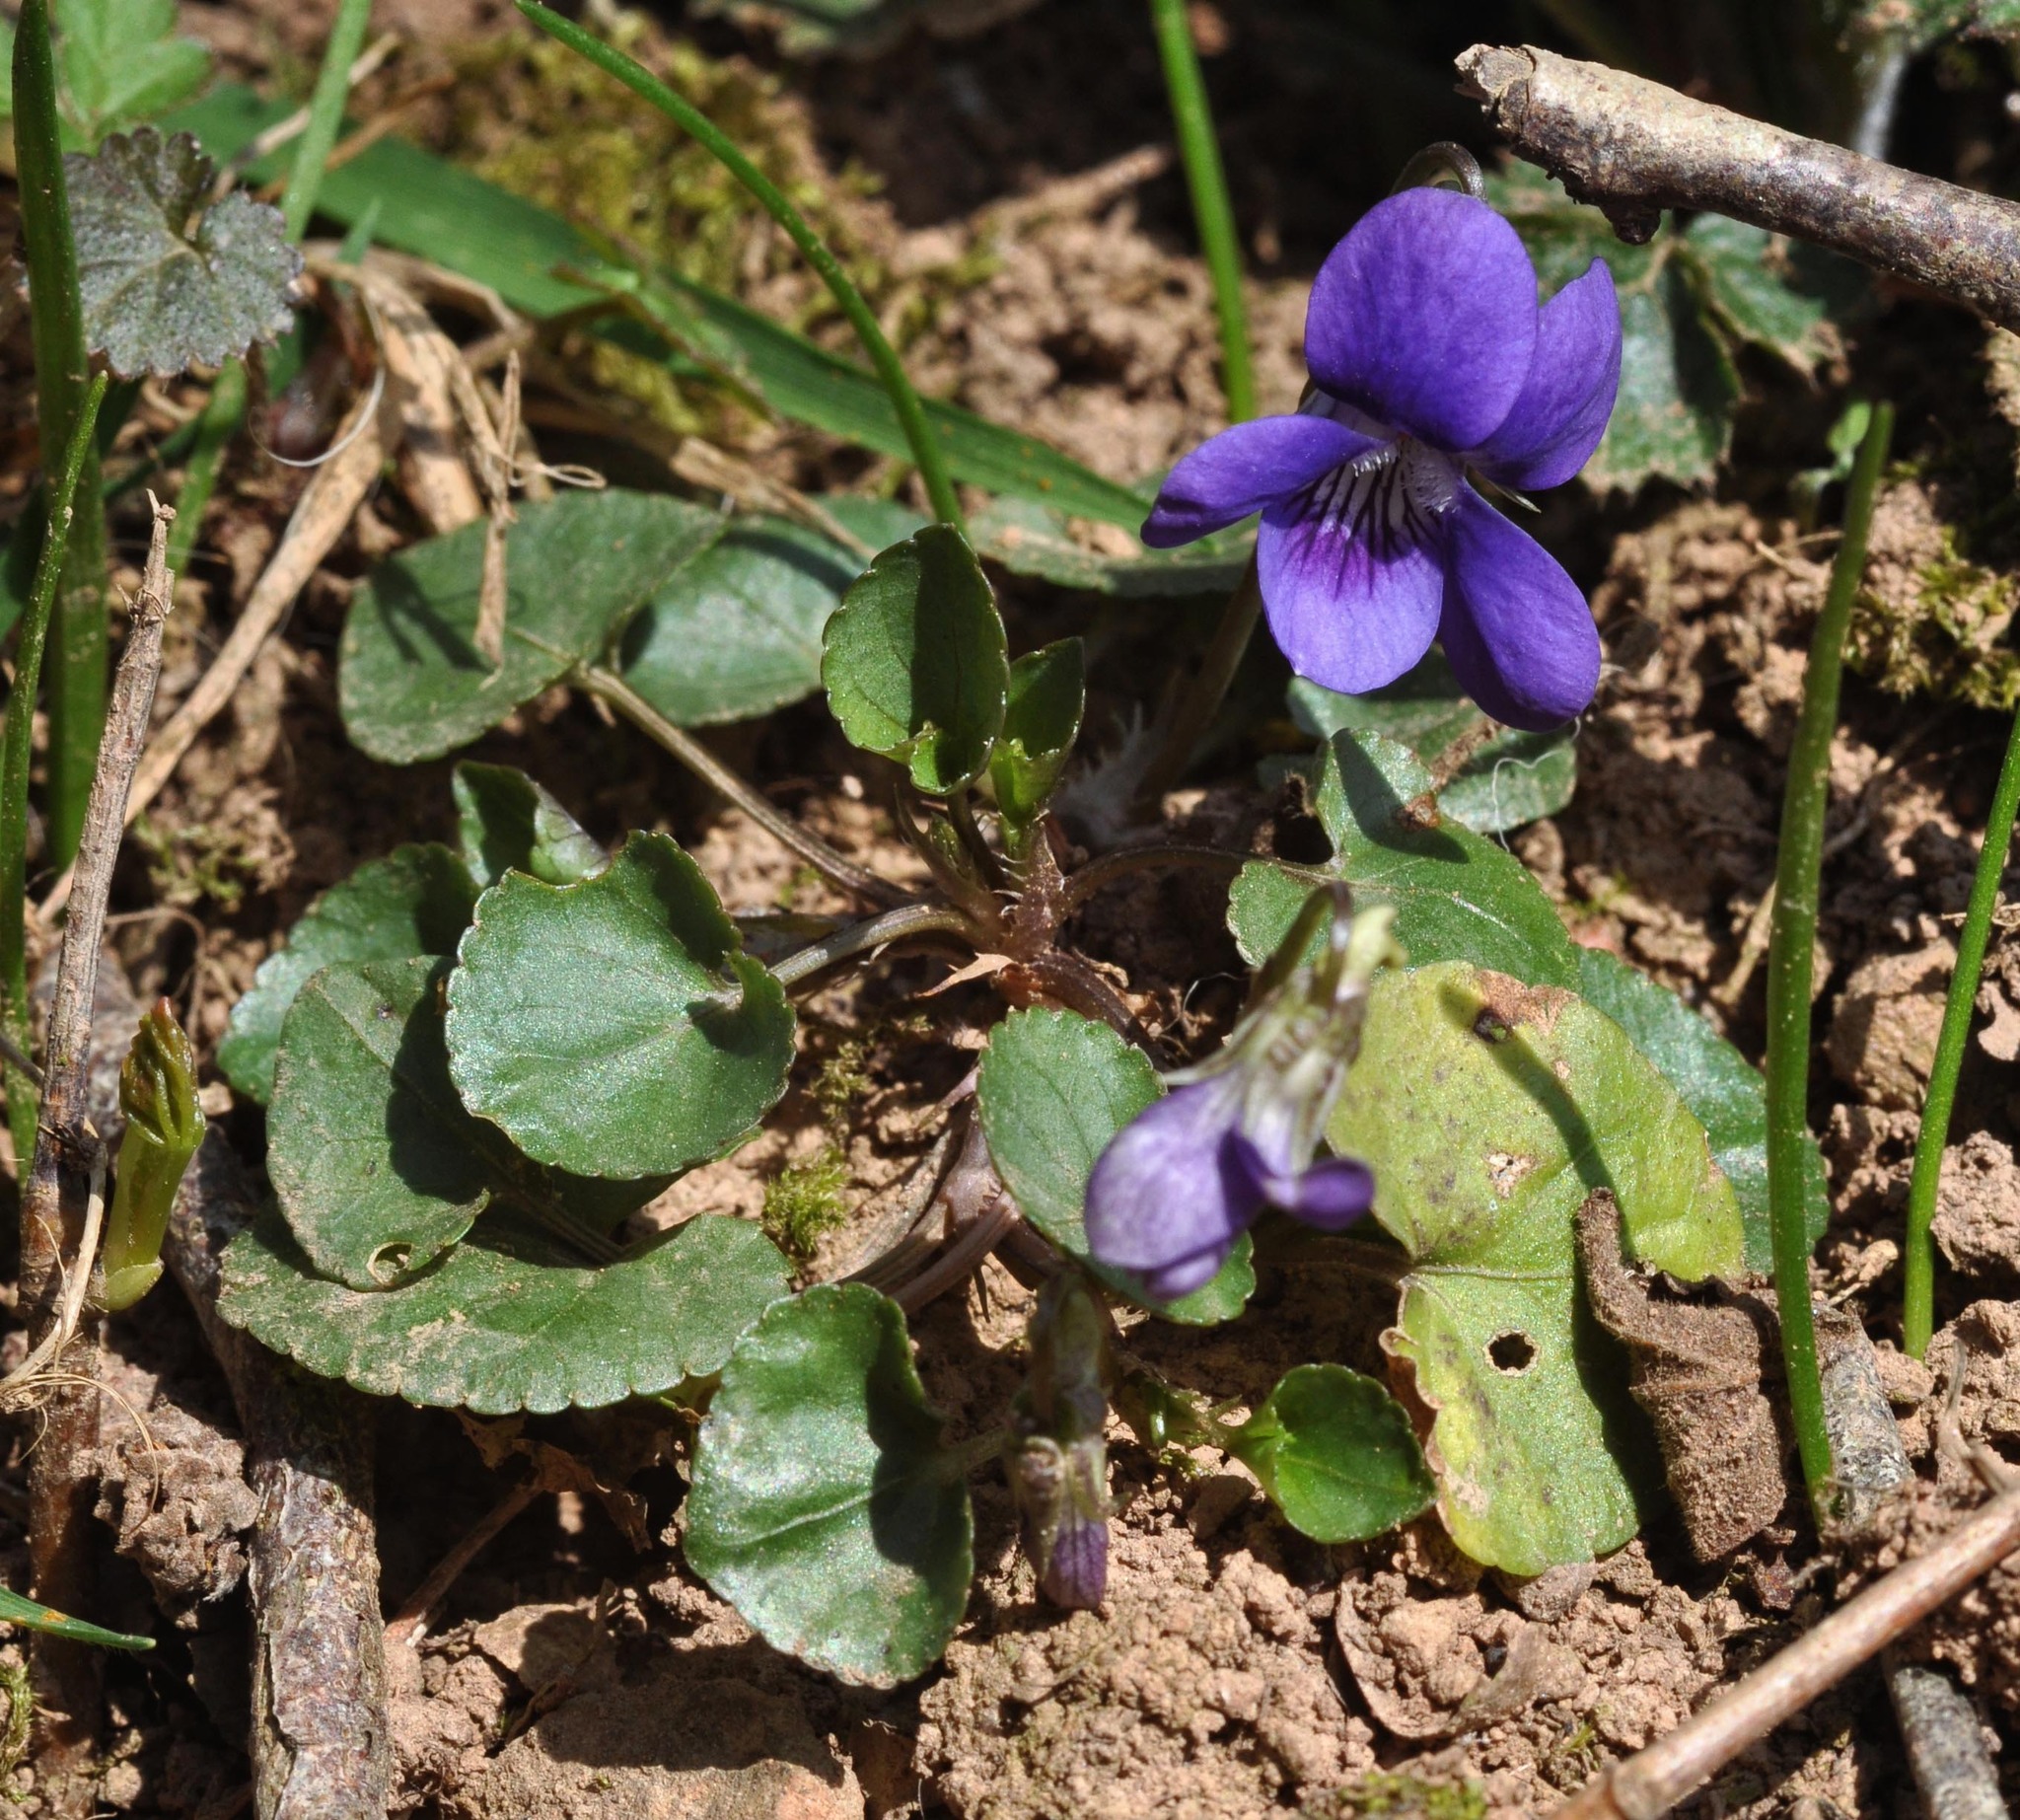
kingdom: Plantae
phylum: Tracheophyta
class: Magnoliopsida
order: Malpighiales
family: Violaceae
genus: Viola
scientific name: Viola riviniana
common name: Common dog-violet
